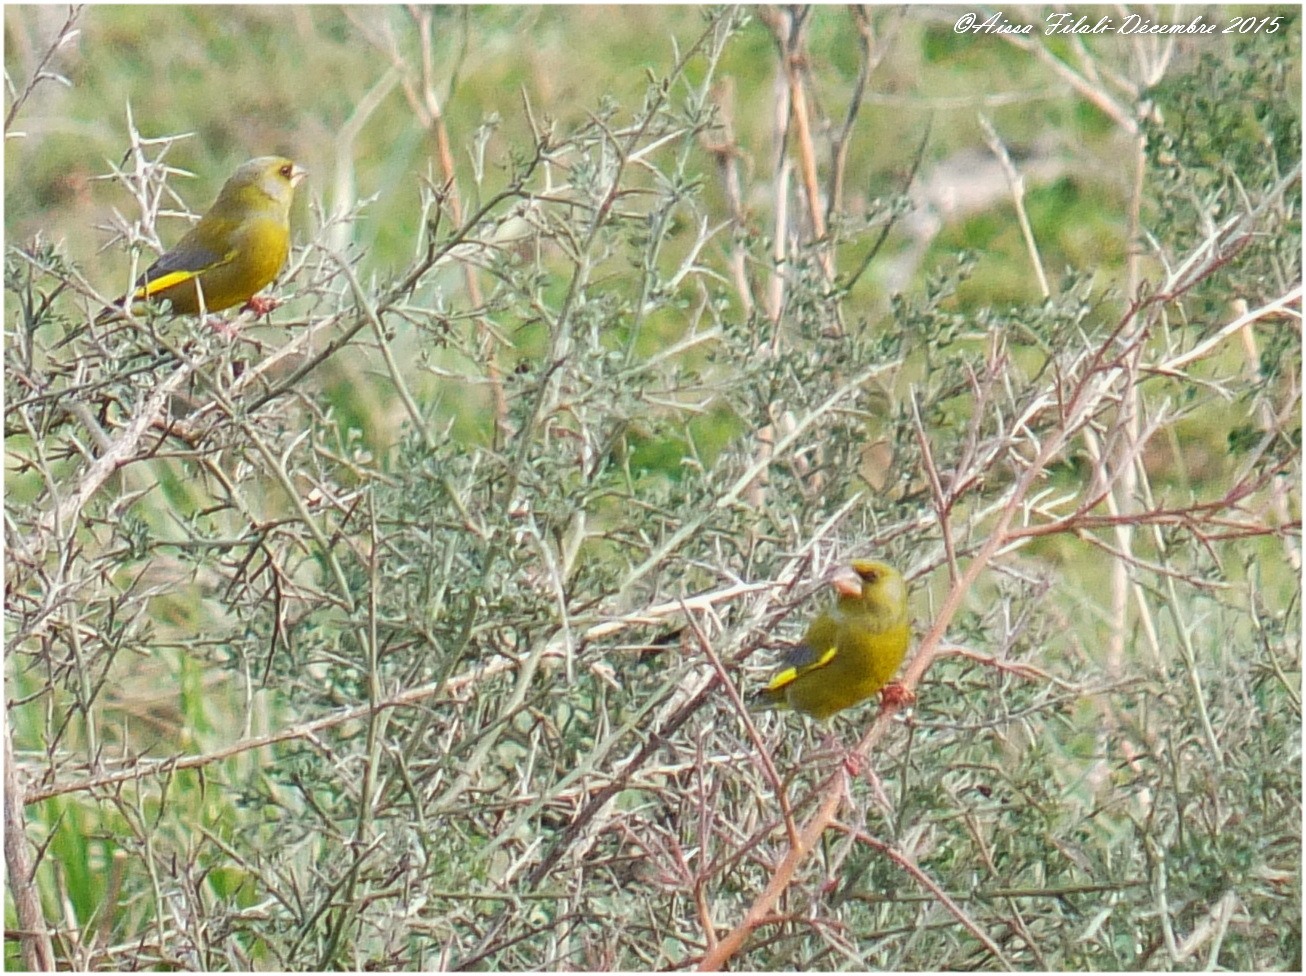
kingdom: Plantae
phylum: Tracheophyta
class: Liliopsida
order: Poales
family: Poaceae
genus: Chloris
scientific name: Chloris chloris
